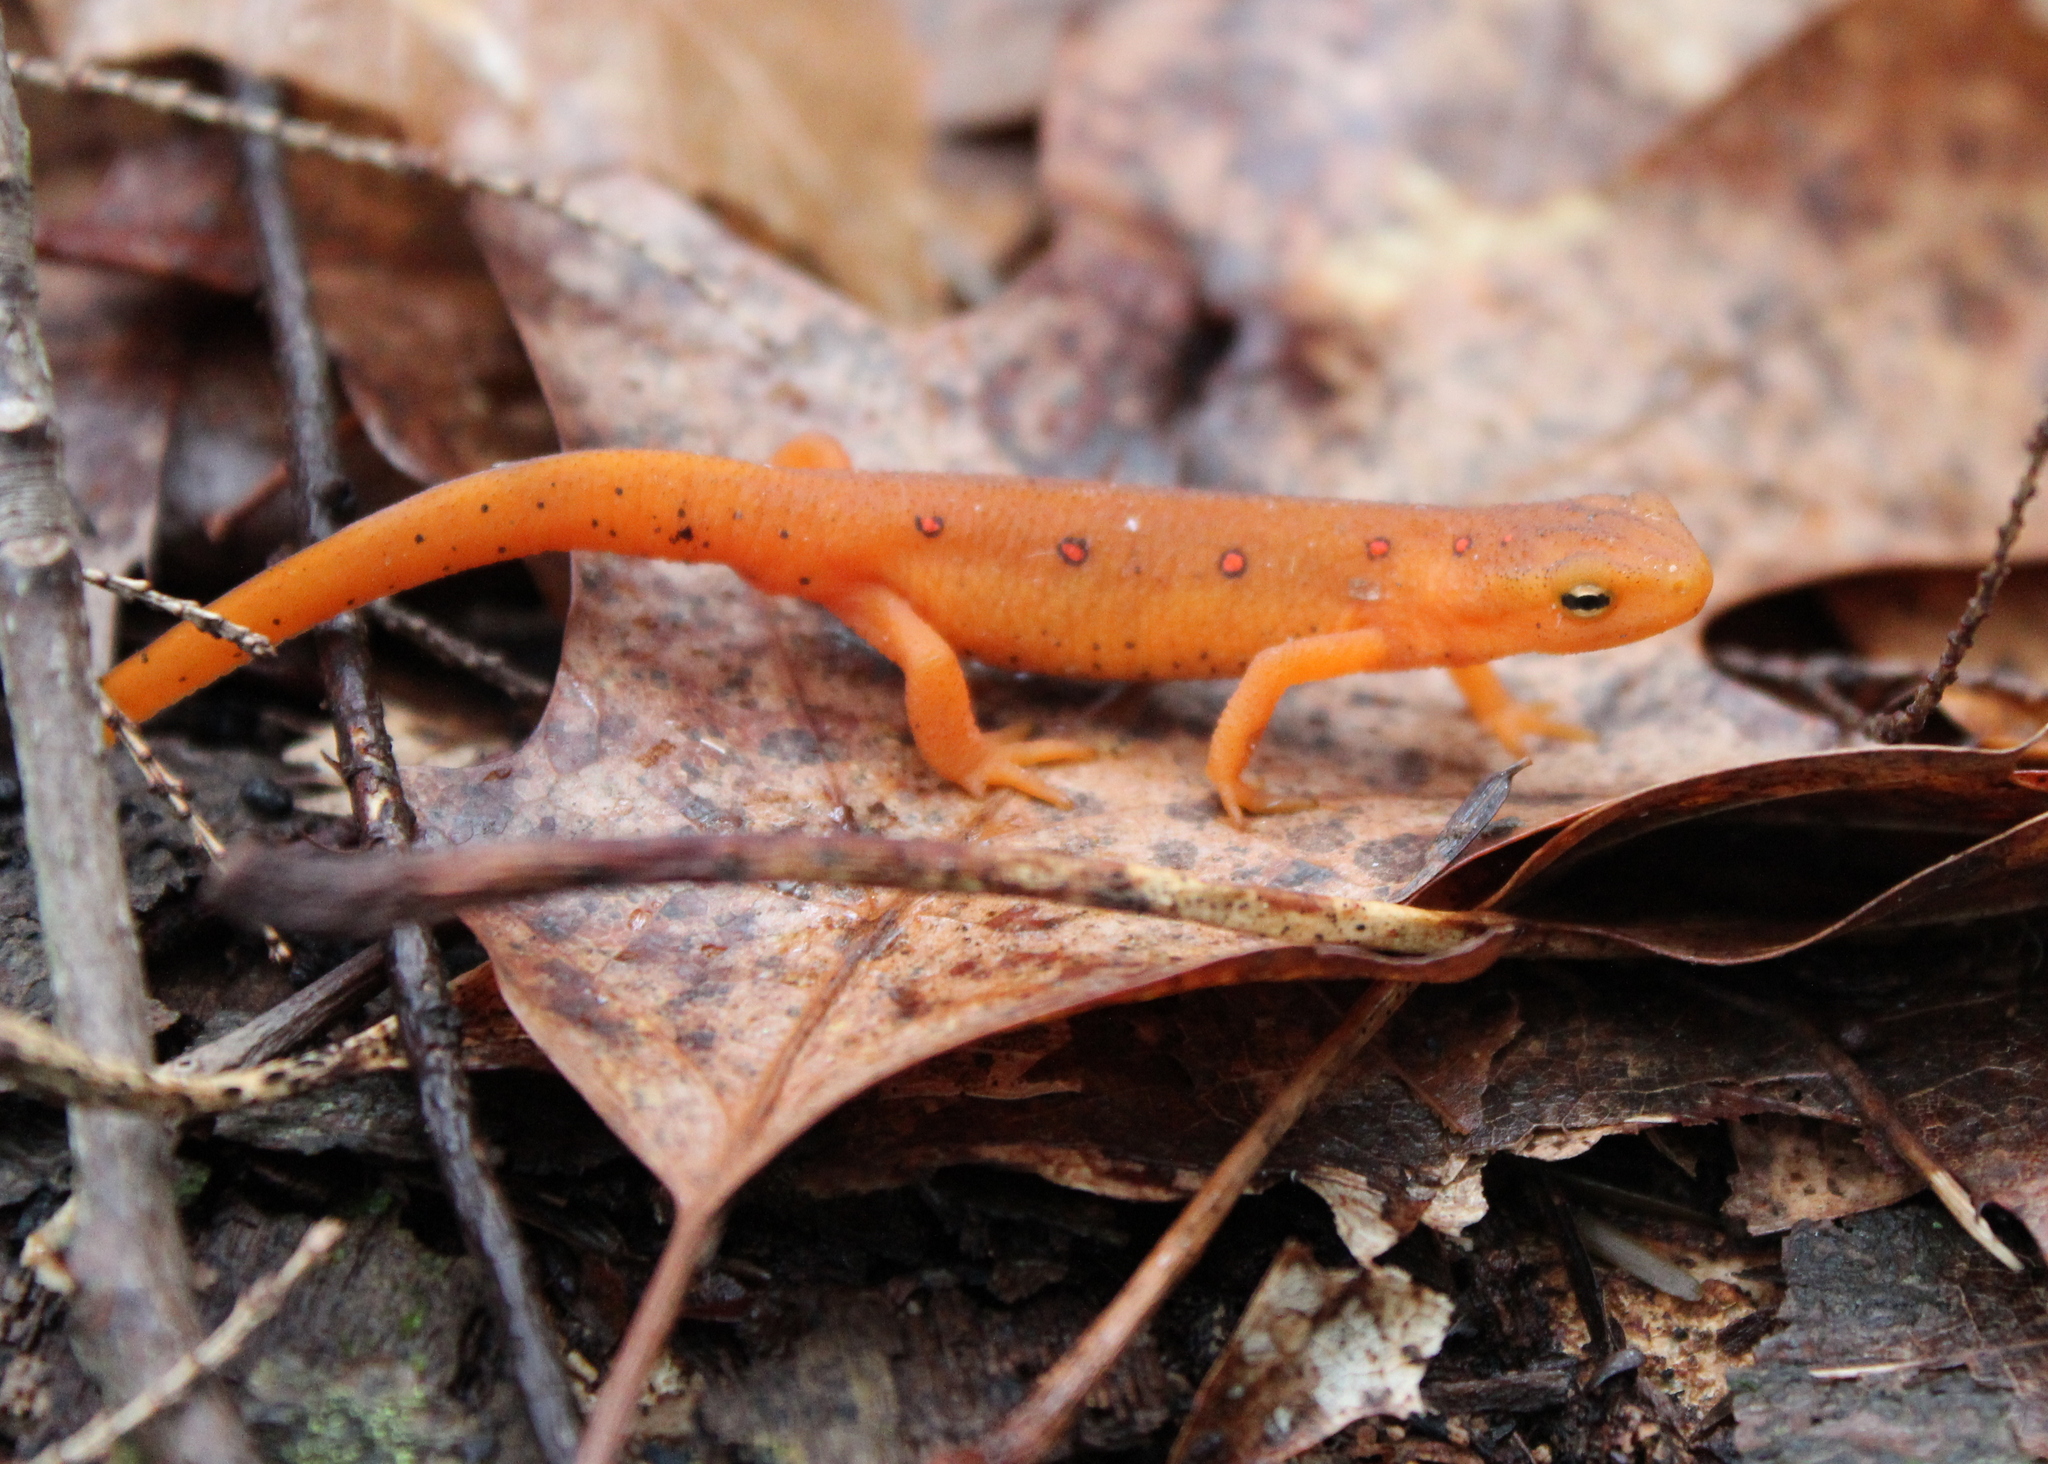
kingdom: Animalia
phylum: Chordata
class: Amphibia
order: Caudata
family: Salamandridae
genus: Notophthalmus
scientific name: Notophthalmus viridescens
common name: Eastern newt
